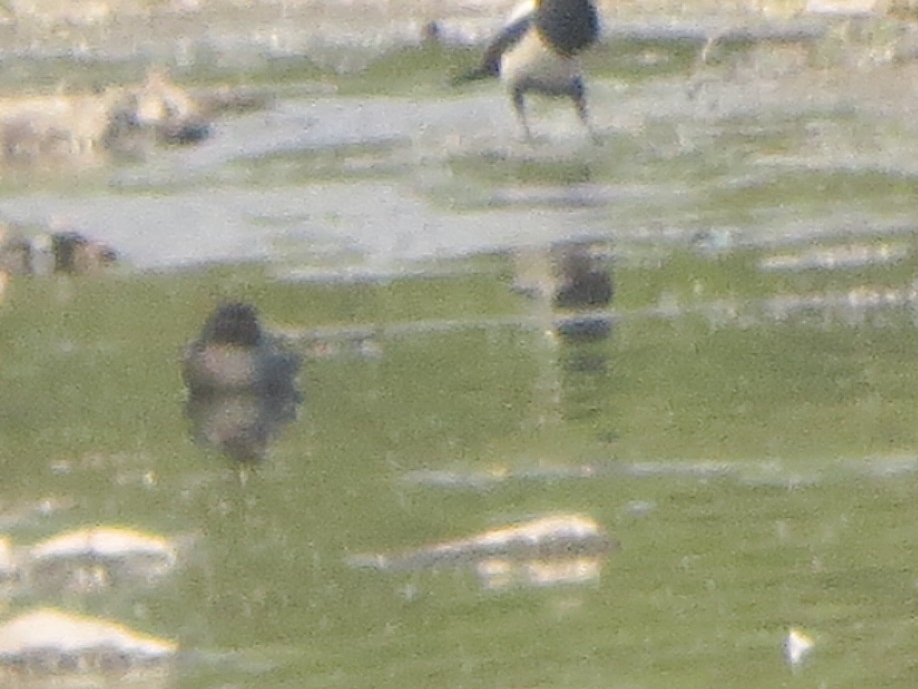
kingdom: Animalia
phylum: Chordata
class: Aves
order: Anseriformes
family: Anatidae
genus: Anas
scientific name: Anas crecca
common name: Eurasian teal
